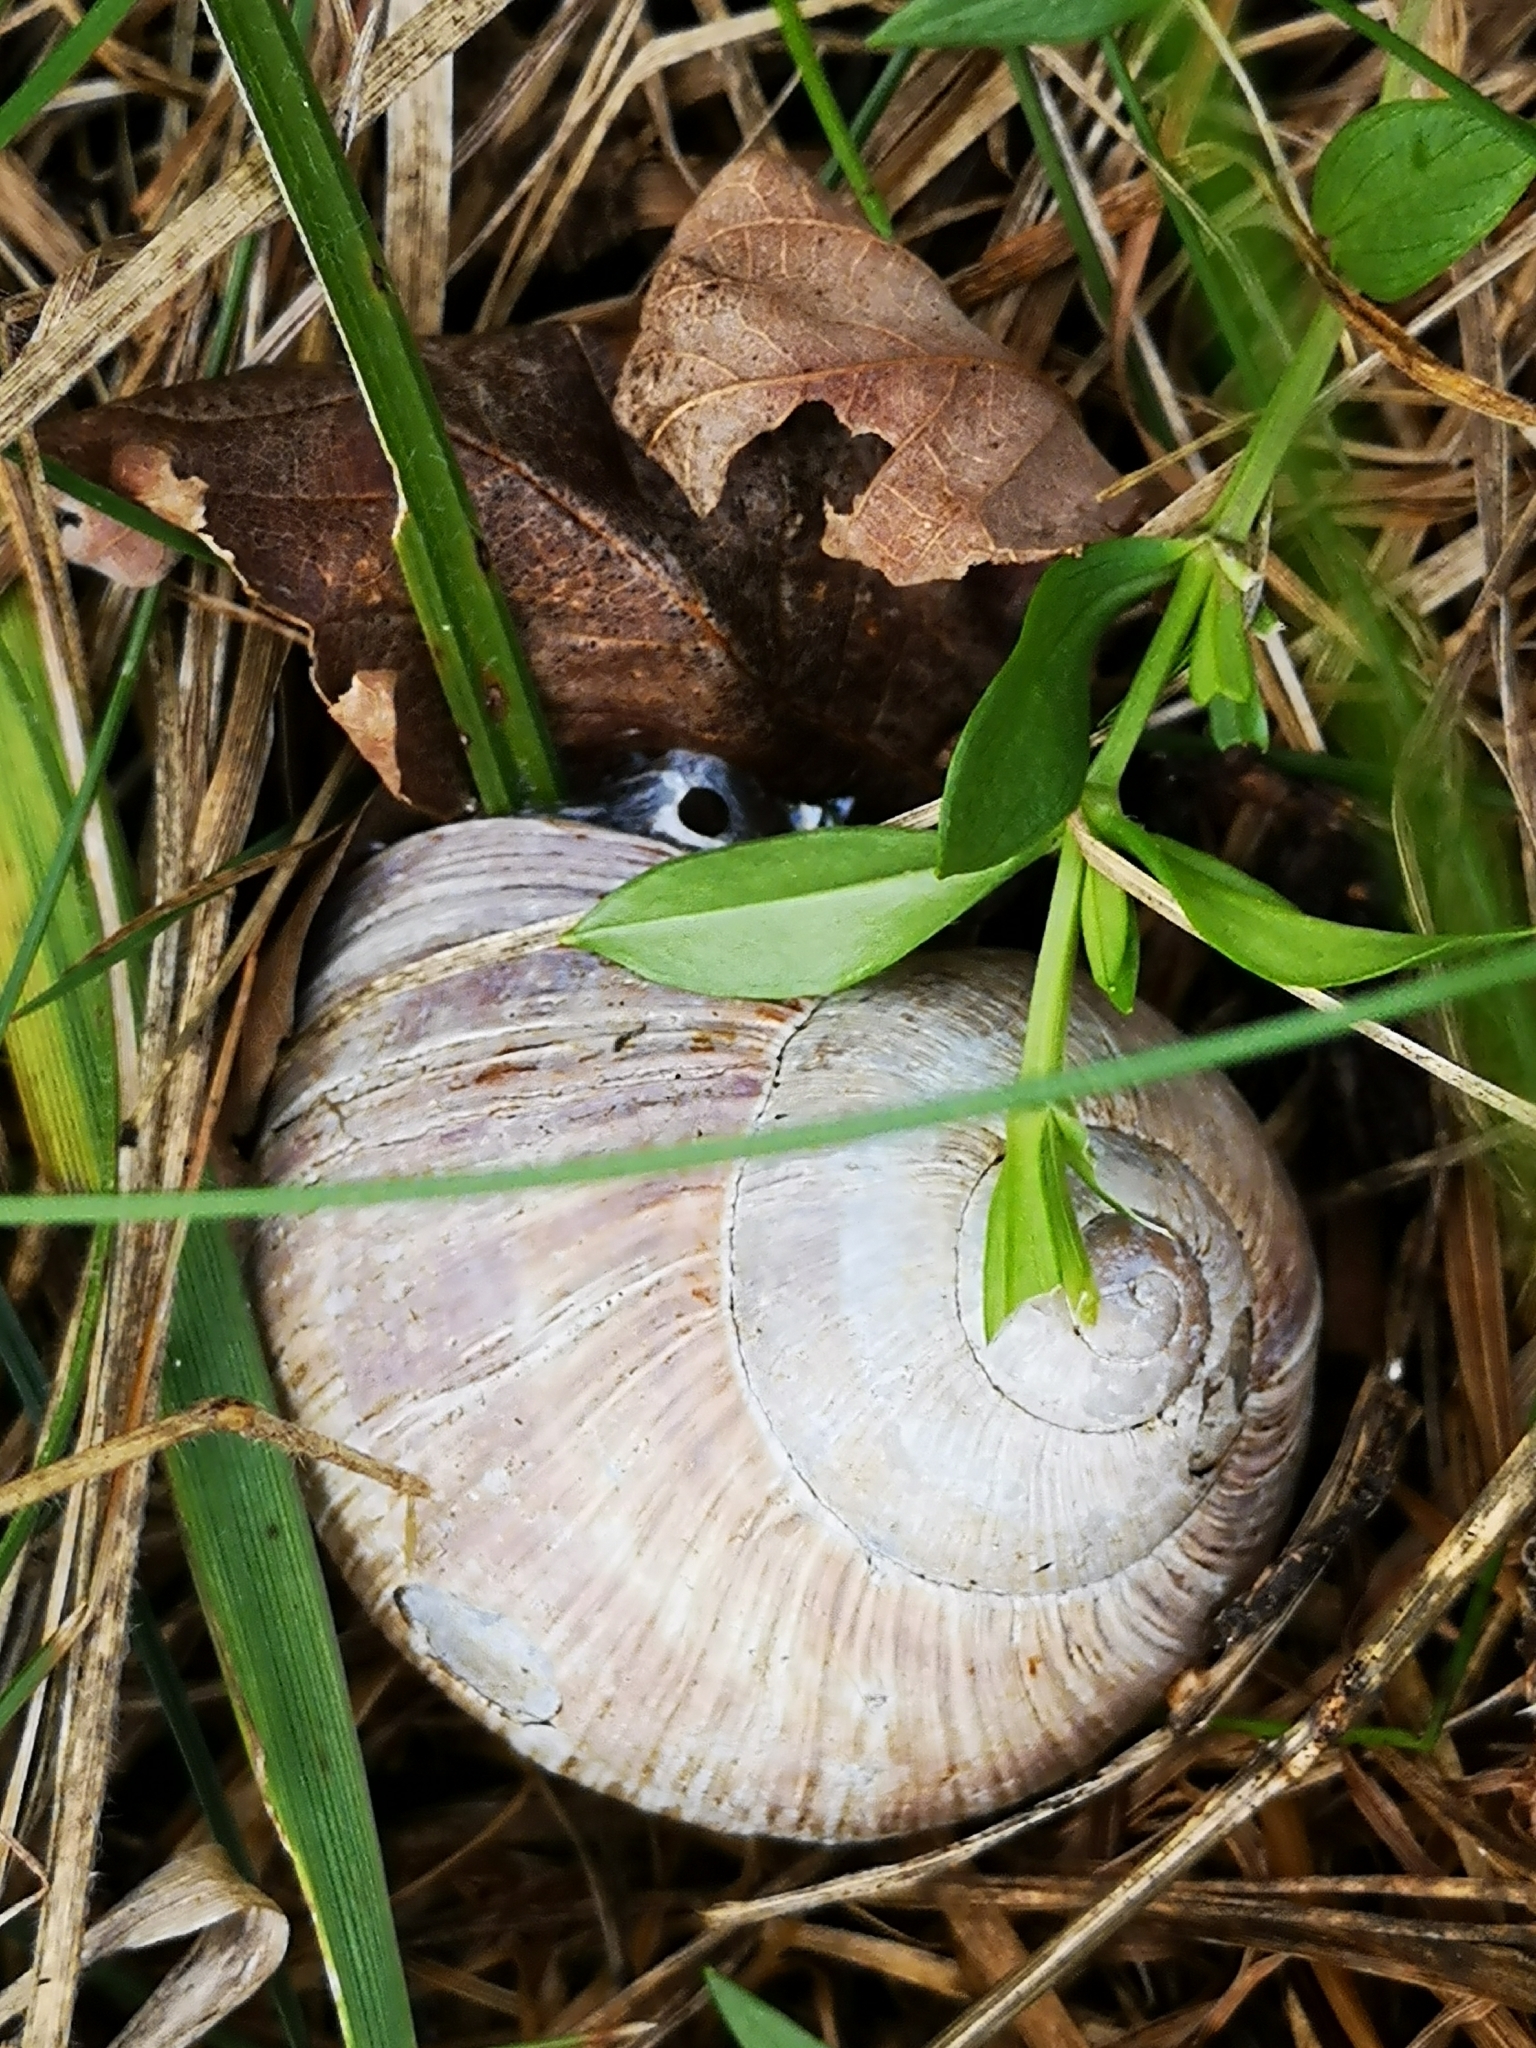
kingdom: Animalia
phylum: Mollusca
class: Gastropoda
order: Stylommatophora
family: Helicidae
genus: Helix
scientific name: Helix pomatia
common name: Roman snail
